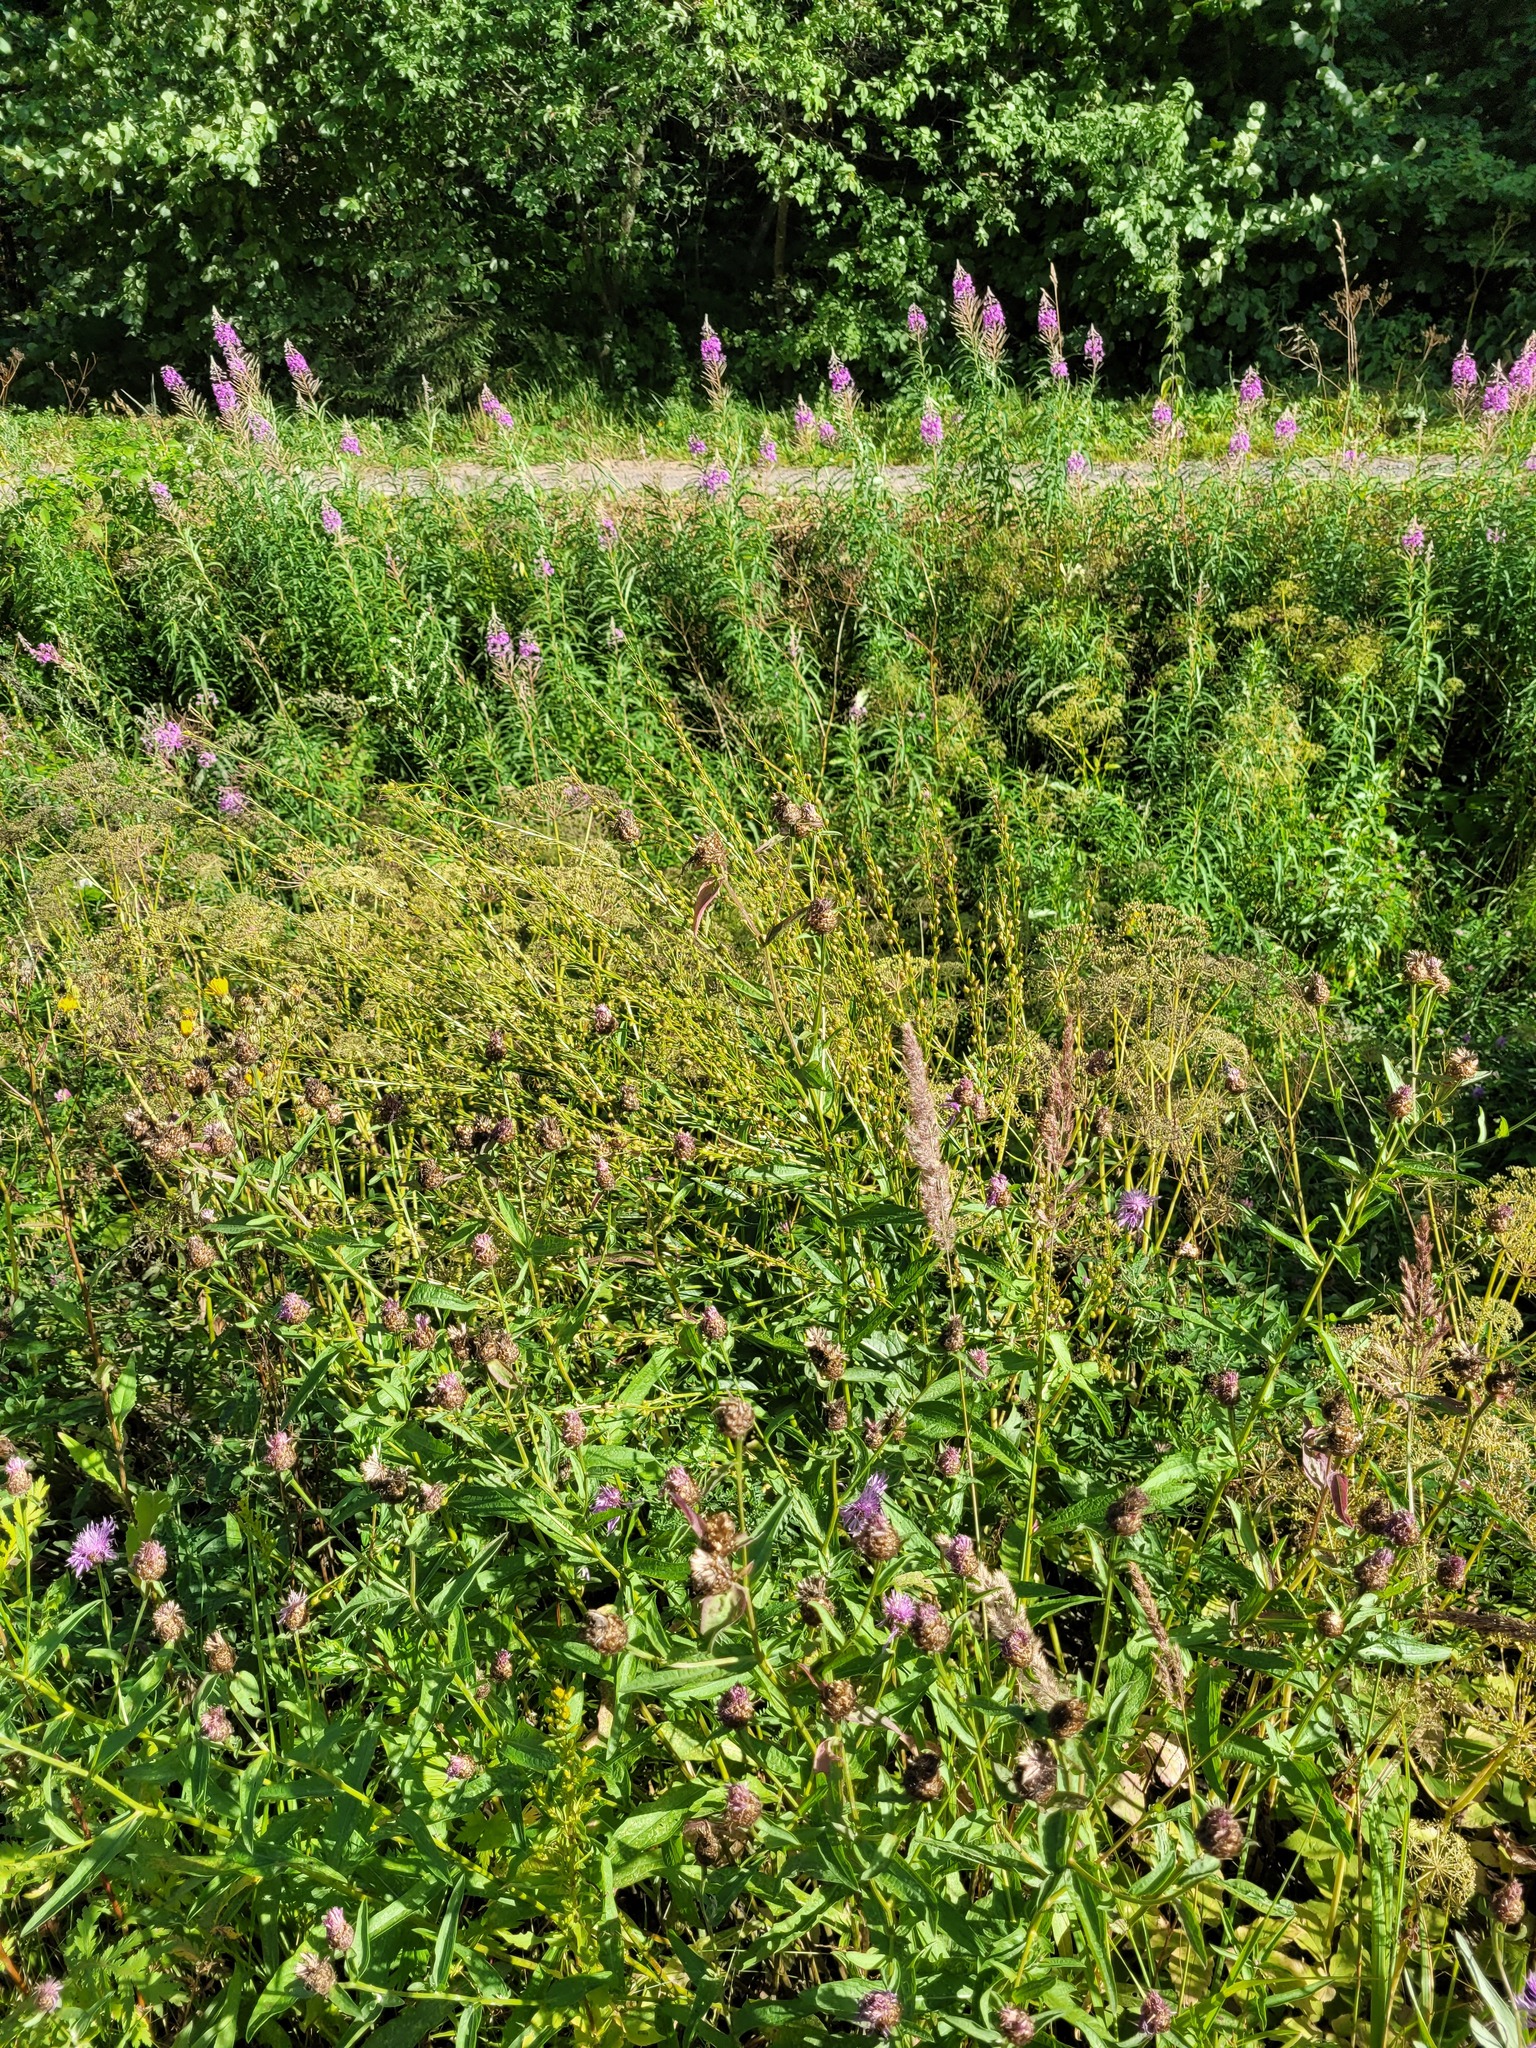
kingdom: Plantae
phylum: Tracheophyta
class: Magnoliopsida
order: Brassicales
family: Brassicaceae
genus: Bunias
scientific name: Bunias orientalis
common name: Warty-cabbage
